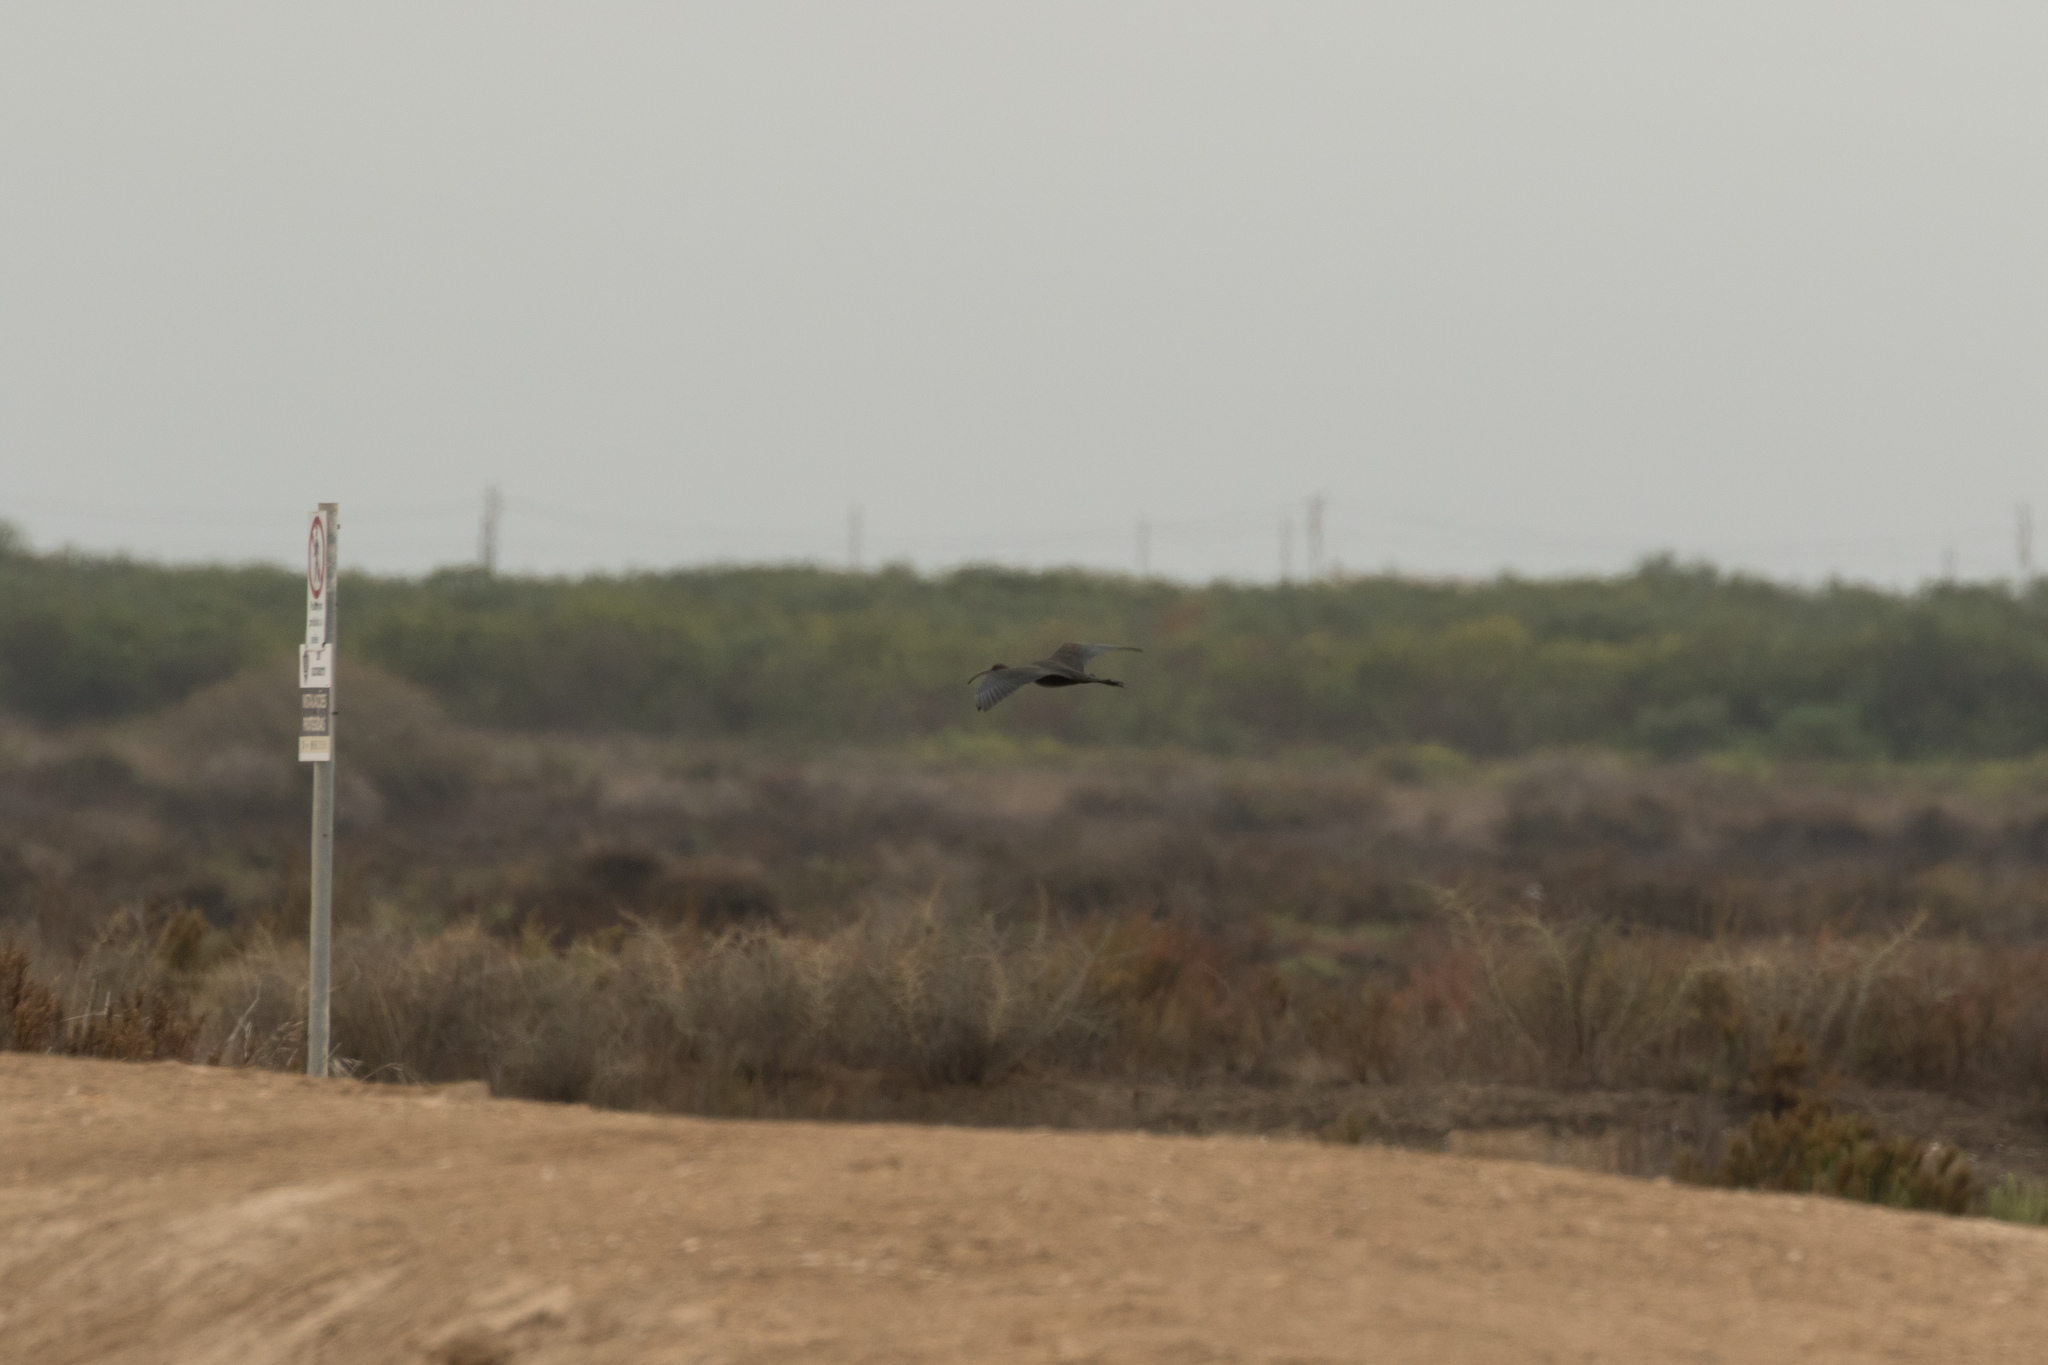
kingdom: Animalia
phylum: Chordata
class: Aves
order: Pelecaniformes
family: Threskiornithidae
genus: Plegadis
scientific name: Plegadis falcinellus
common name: Glossy ibis
